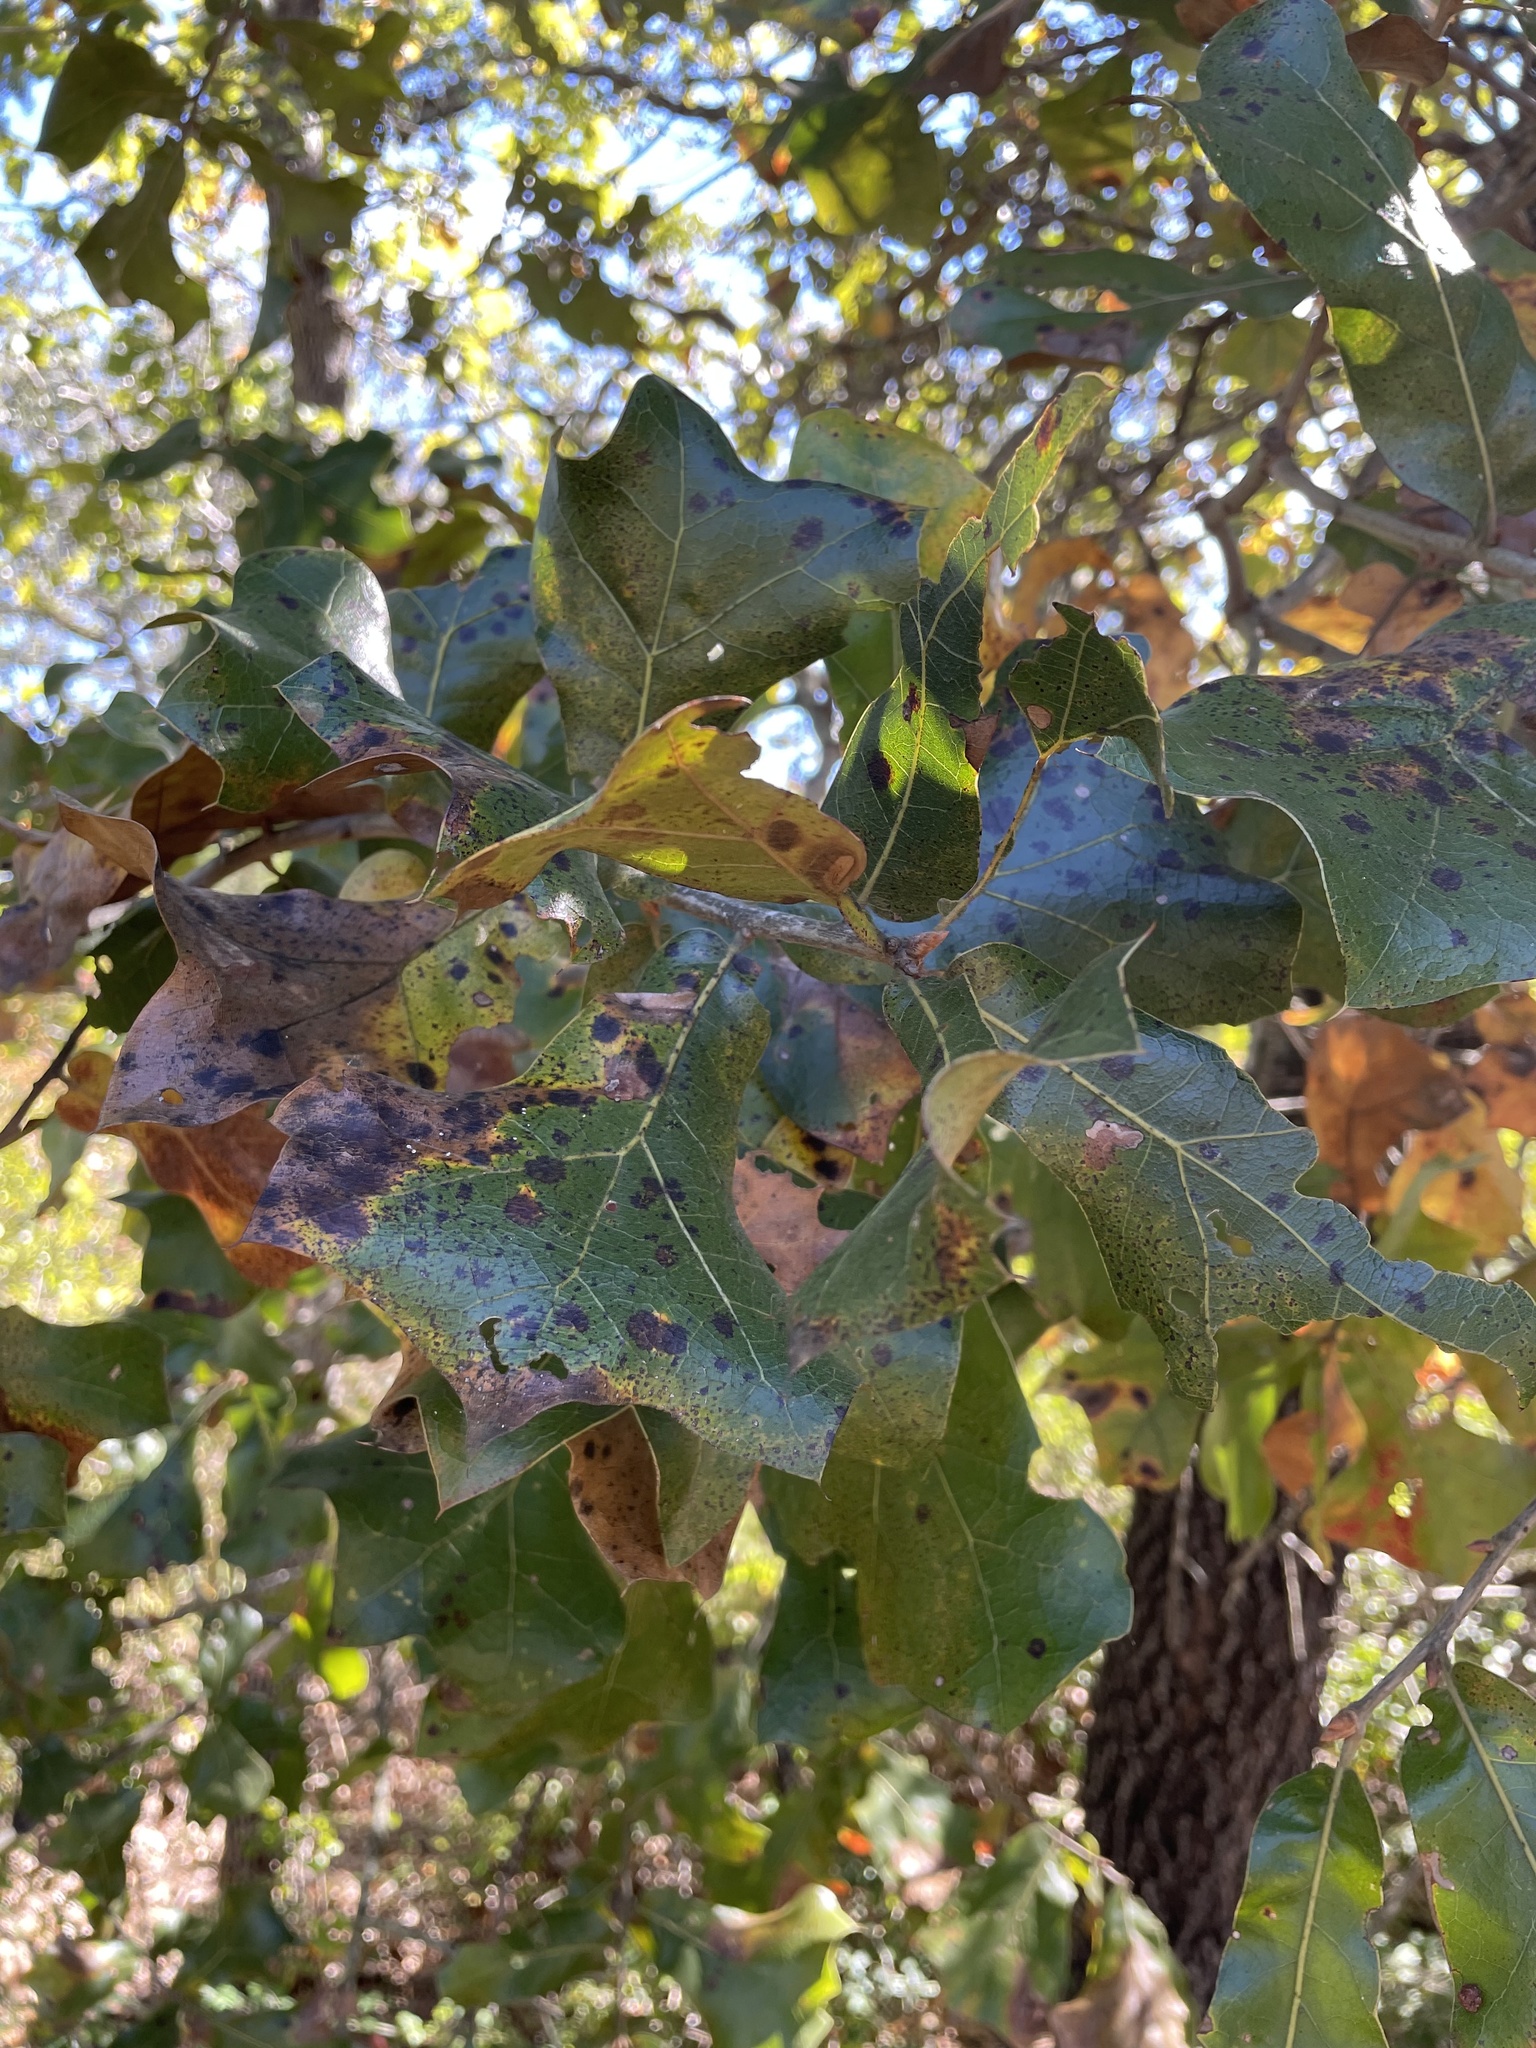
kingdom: Plantae
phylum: Tracheophyta
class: Magnoliopsida
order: Fagales
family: Fagaceae
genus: Quercus
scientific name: Quercus marilandica
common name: Blackjack oak
